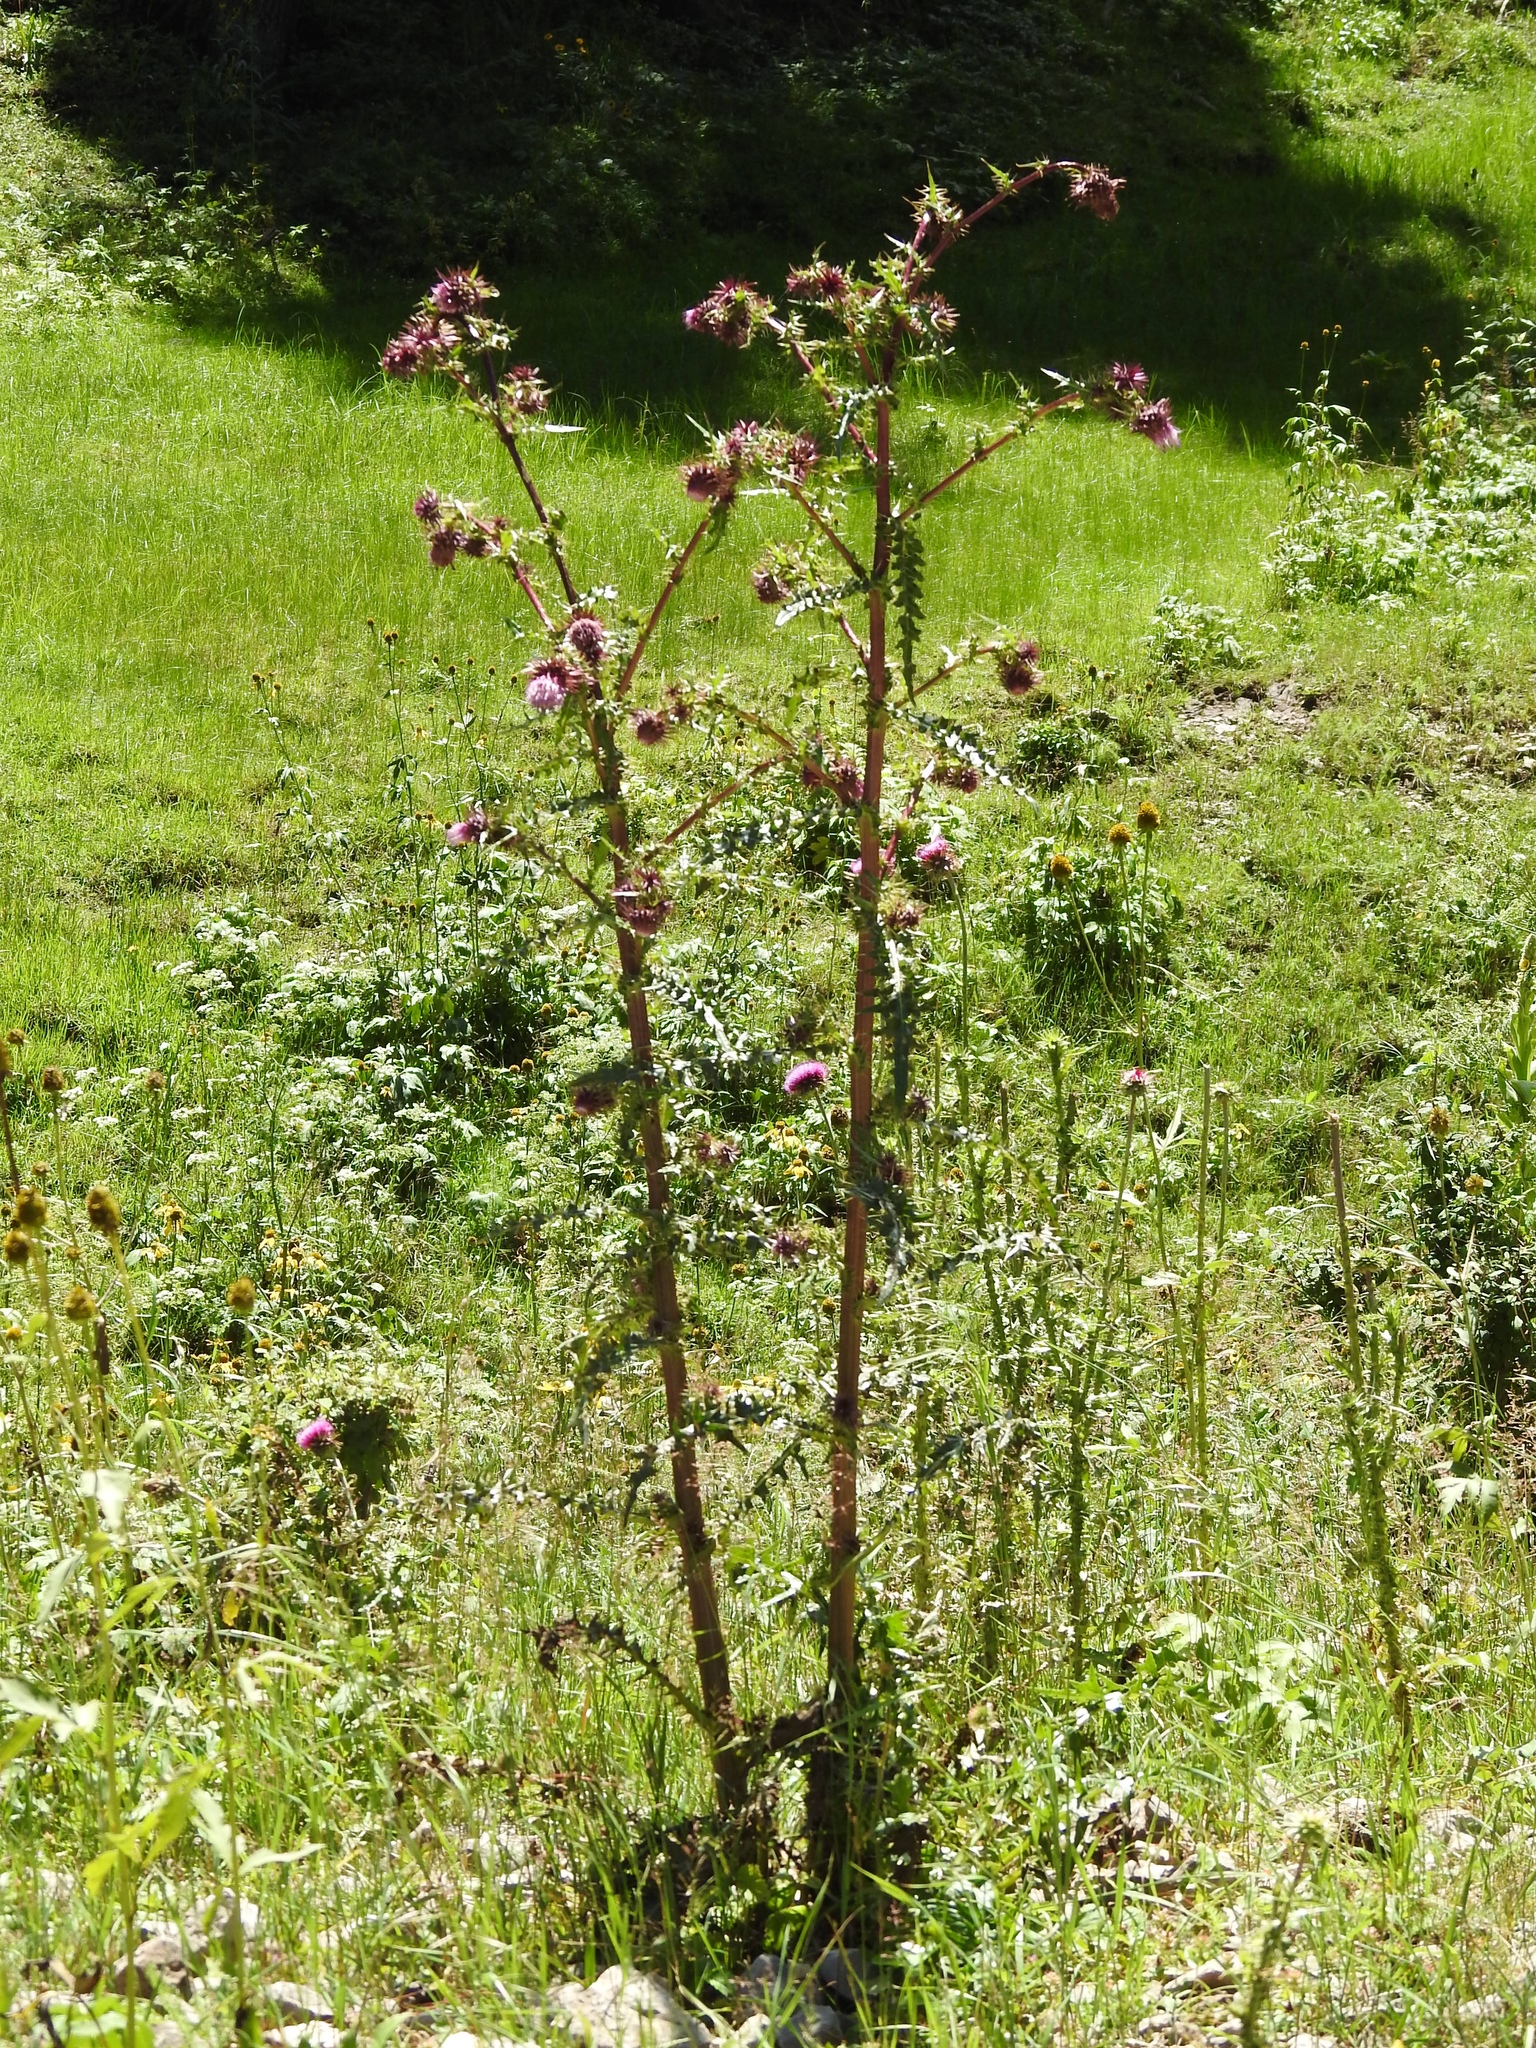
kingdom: Plantae
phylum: Tracheophyta
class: Magnoliopsida
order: Asterales
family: Asteraceae
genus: Cirsium
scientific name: Cirsium vinaceum
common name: Sacramento mountain thistle
